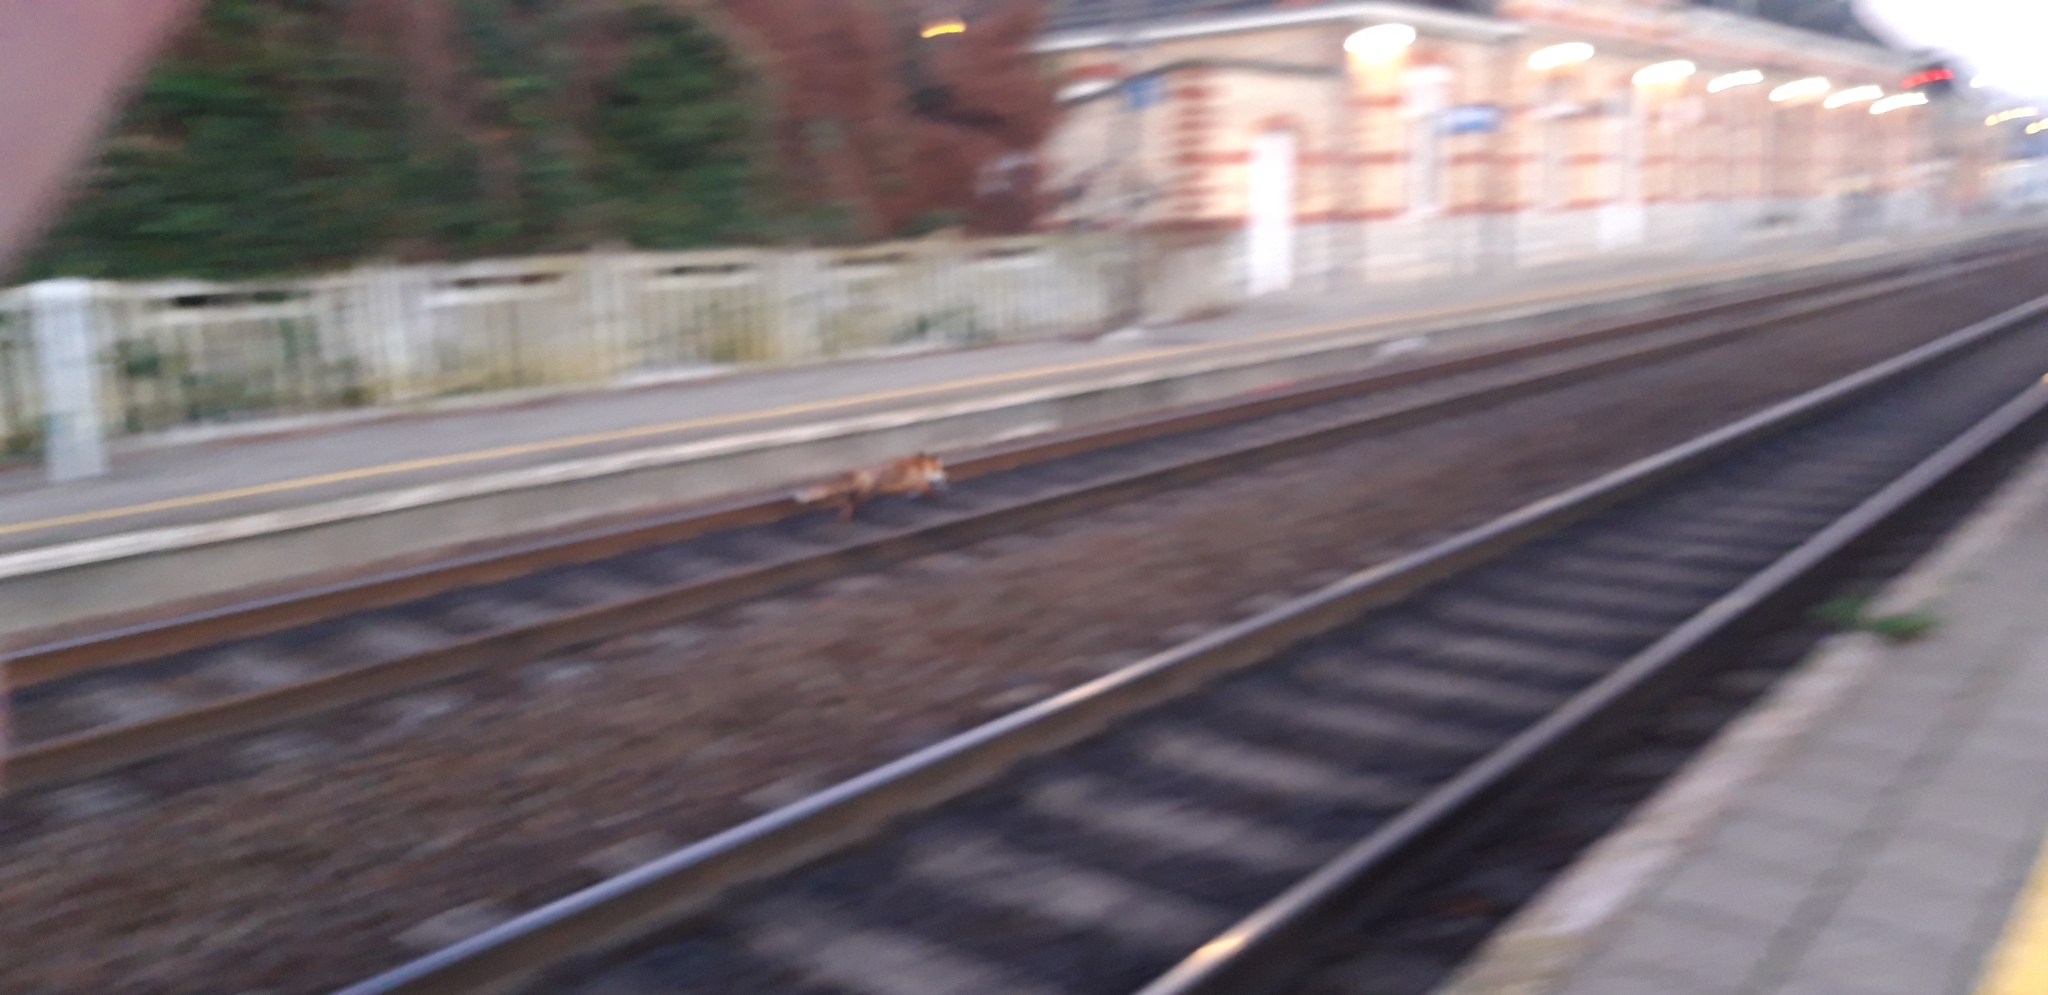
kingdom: Animalia
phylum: Chordata
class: Mammalia
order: Carnivora
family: Canidae
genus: Vulpes
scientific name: Vulpes vulpes
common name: Red fox
